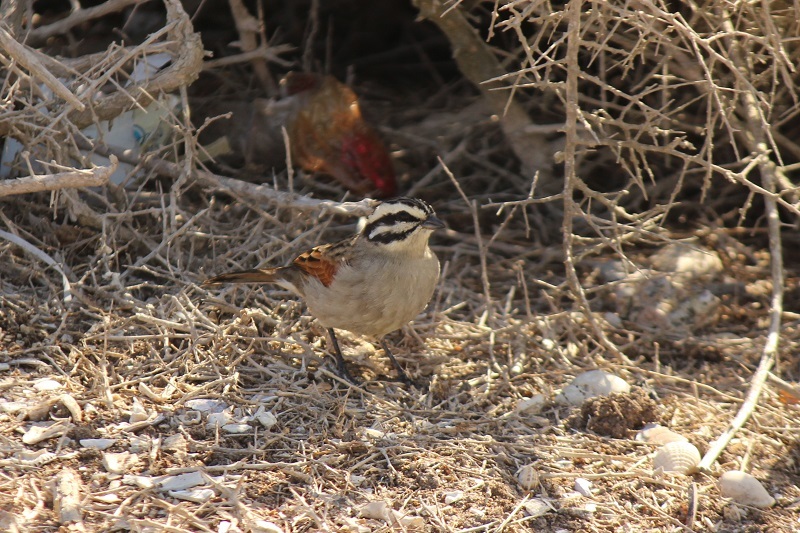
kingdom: Animalia
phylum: Chordata
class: Aves
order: Passeriformes
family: Emberizidae
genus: Emberiza
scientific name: Emberiza capensis
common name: Cape bunting
